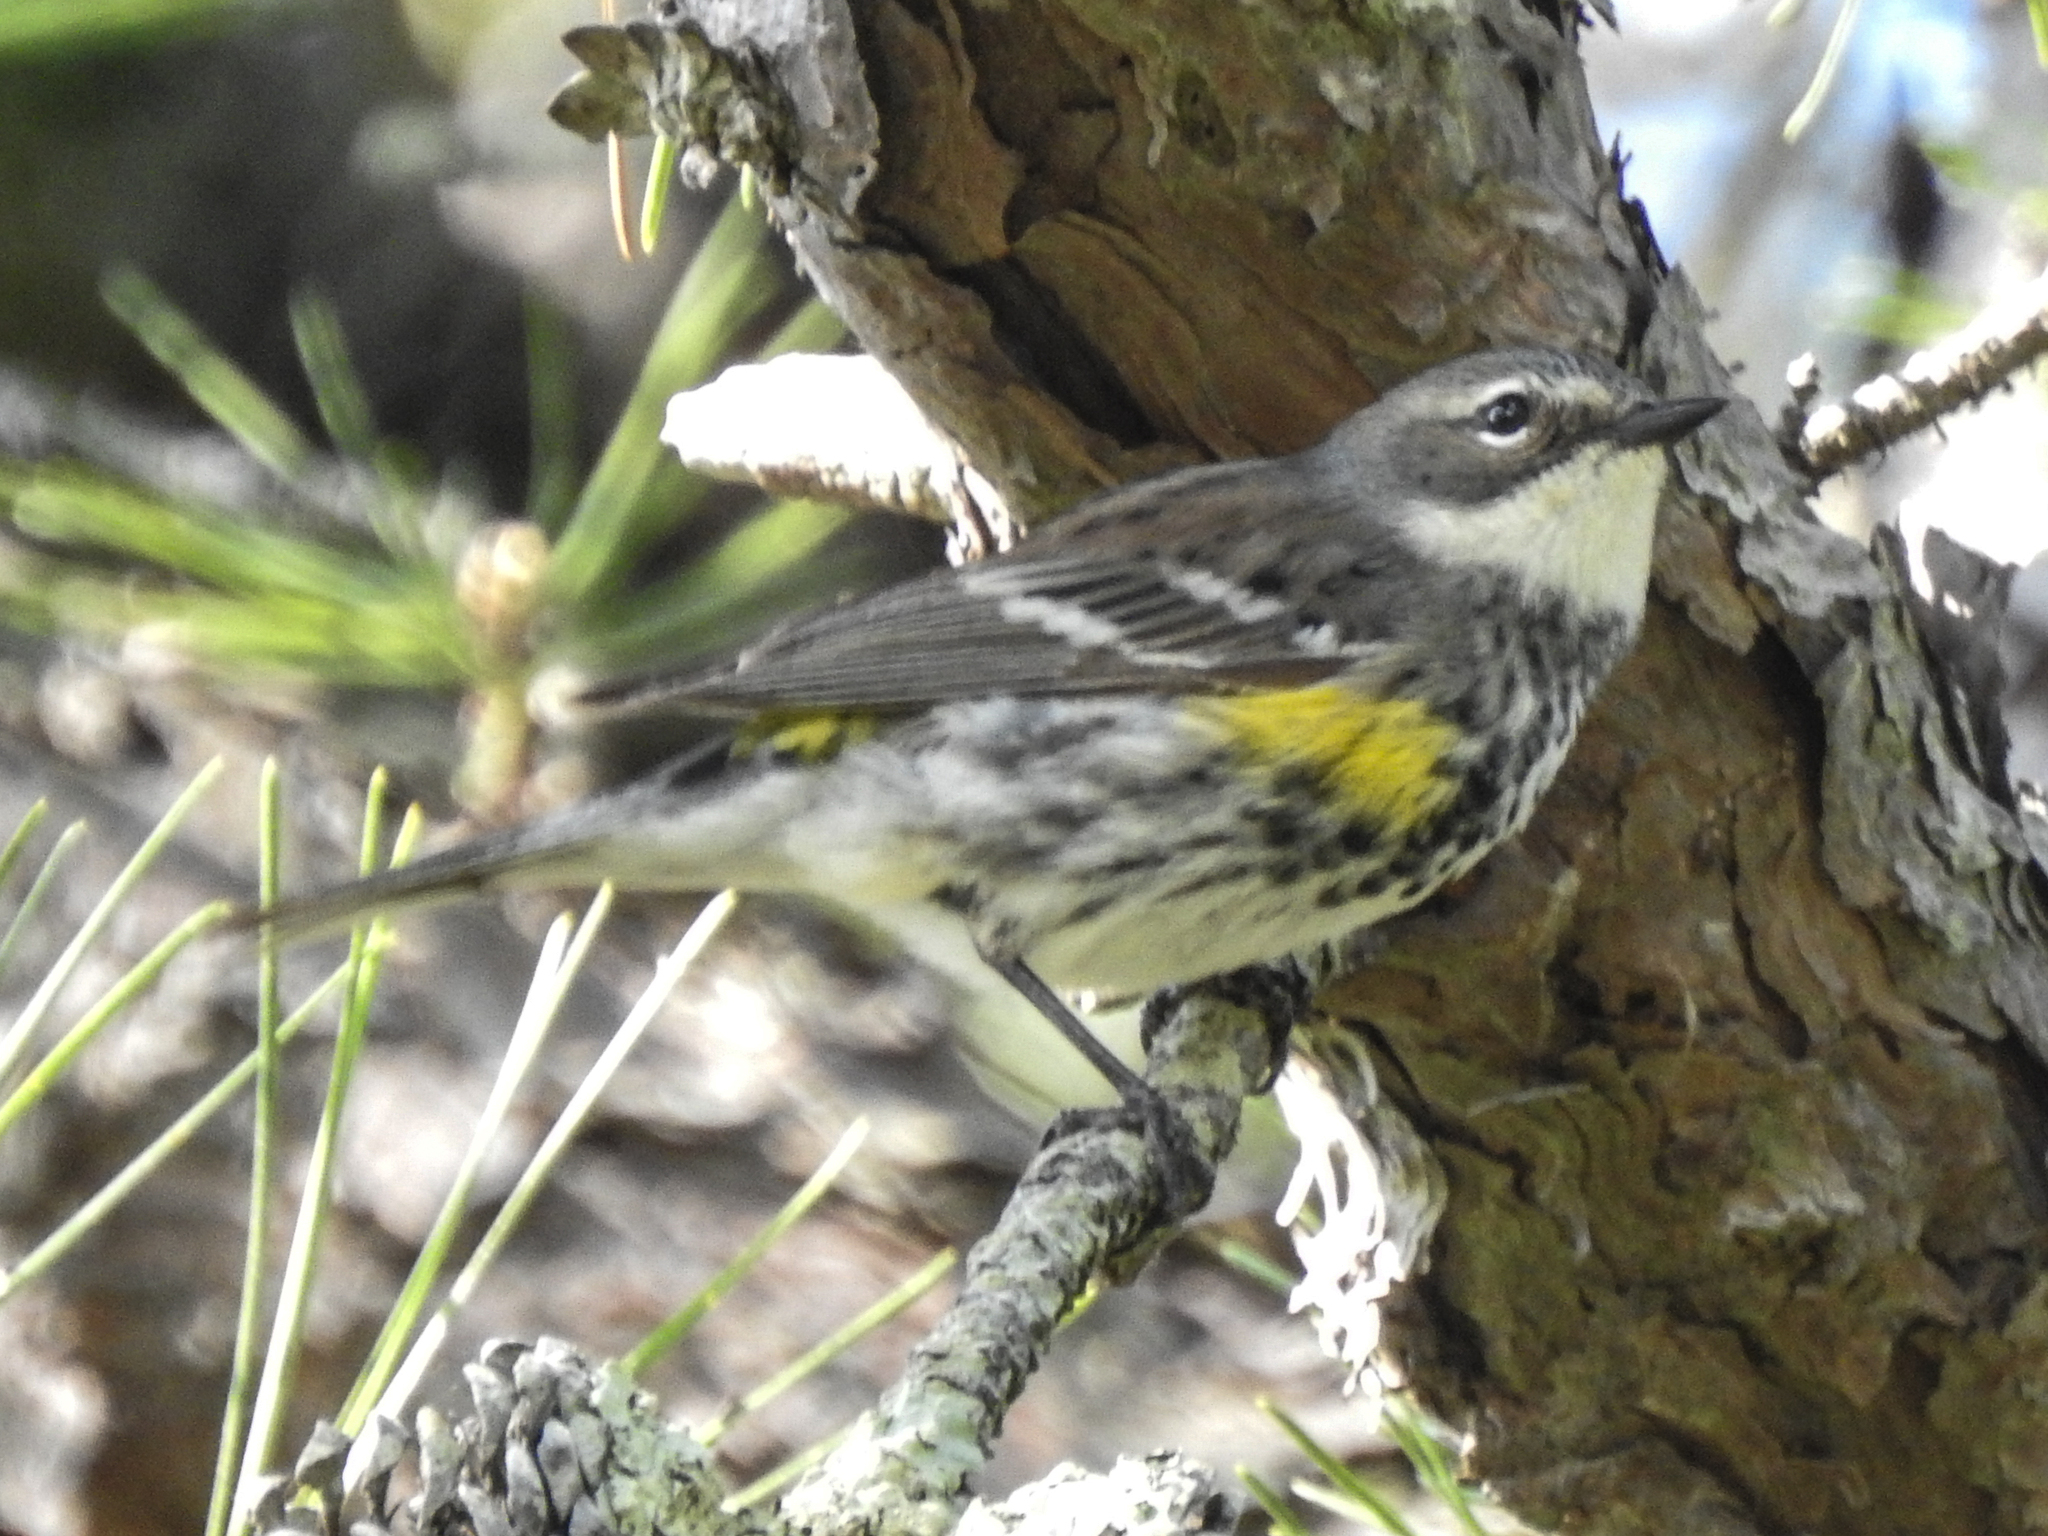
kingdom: Animalia
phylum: Chordata
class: Aves
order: Passeriformes
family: Parulidae
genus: Setophaga
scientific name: Setophaga coronata
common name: Myrtle warbler
